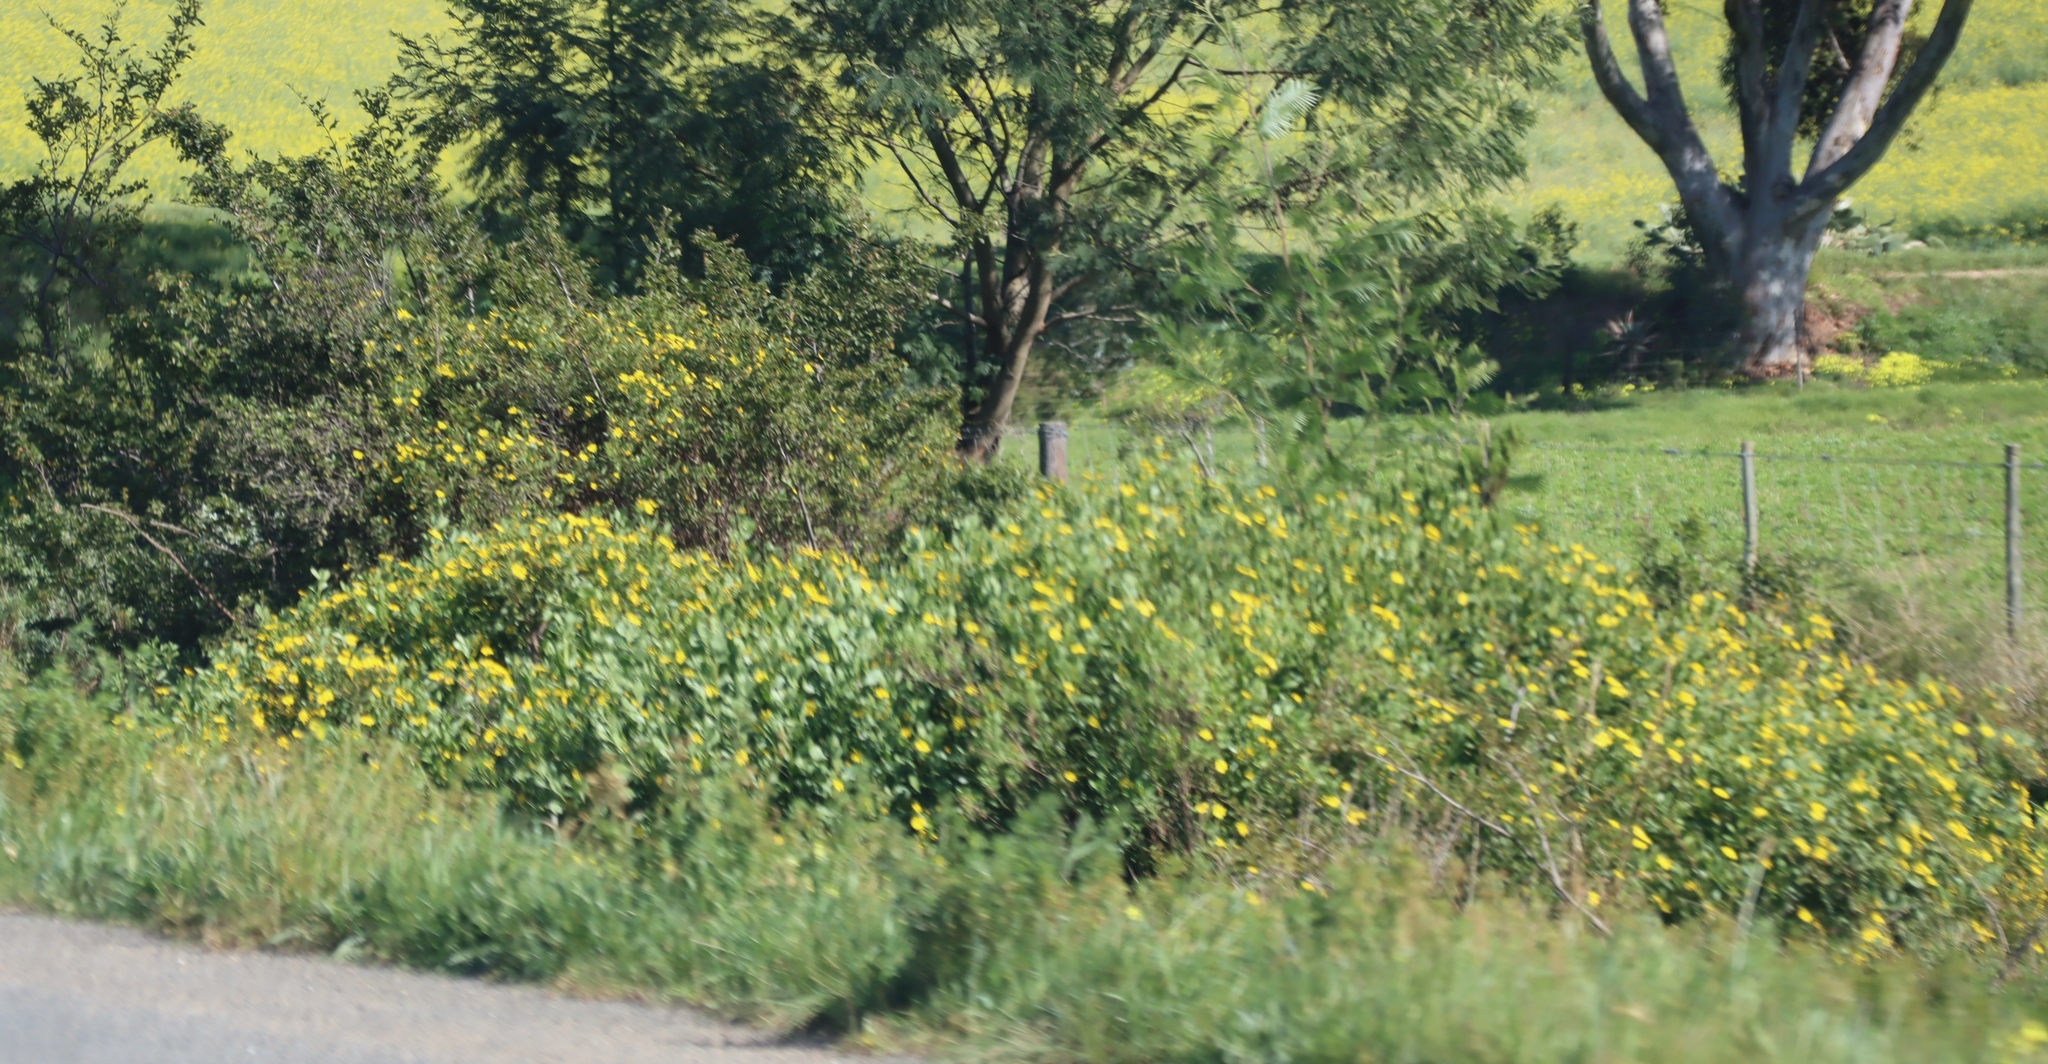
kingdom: Plantae
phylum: Tracheophyta
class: Magnoliopsida
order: Asterales
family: Asteraceae
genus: Osteospermum
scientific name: Osteospermum moniliferum
